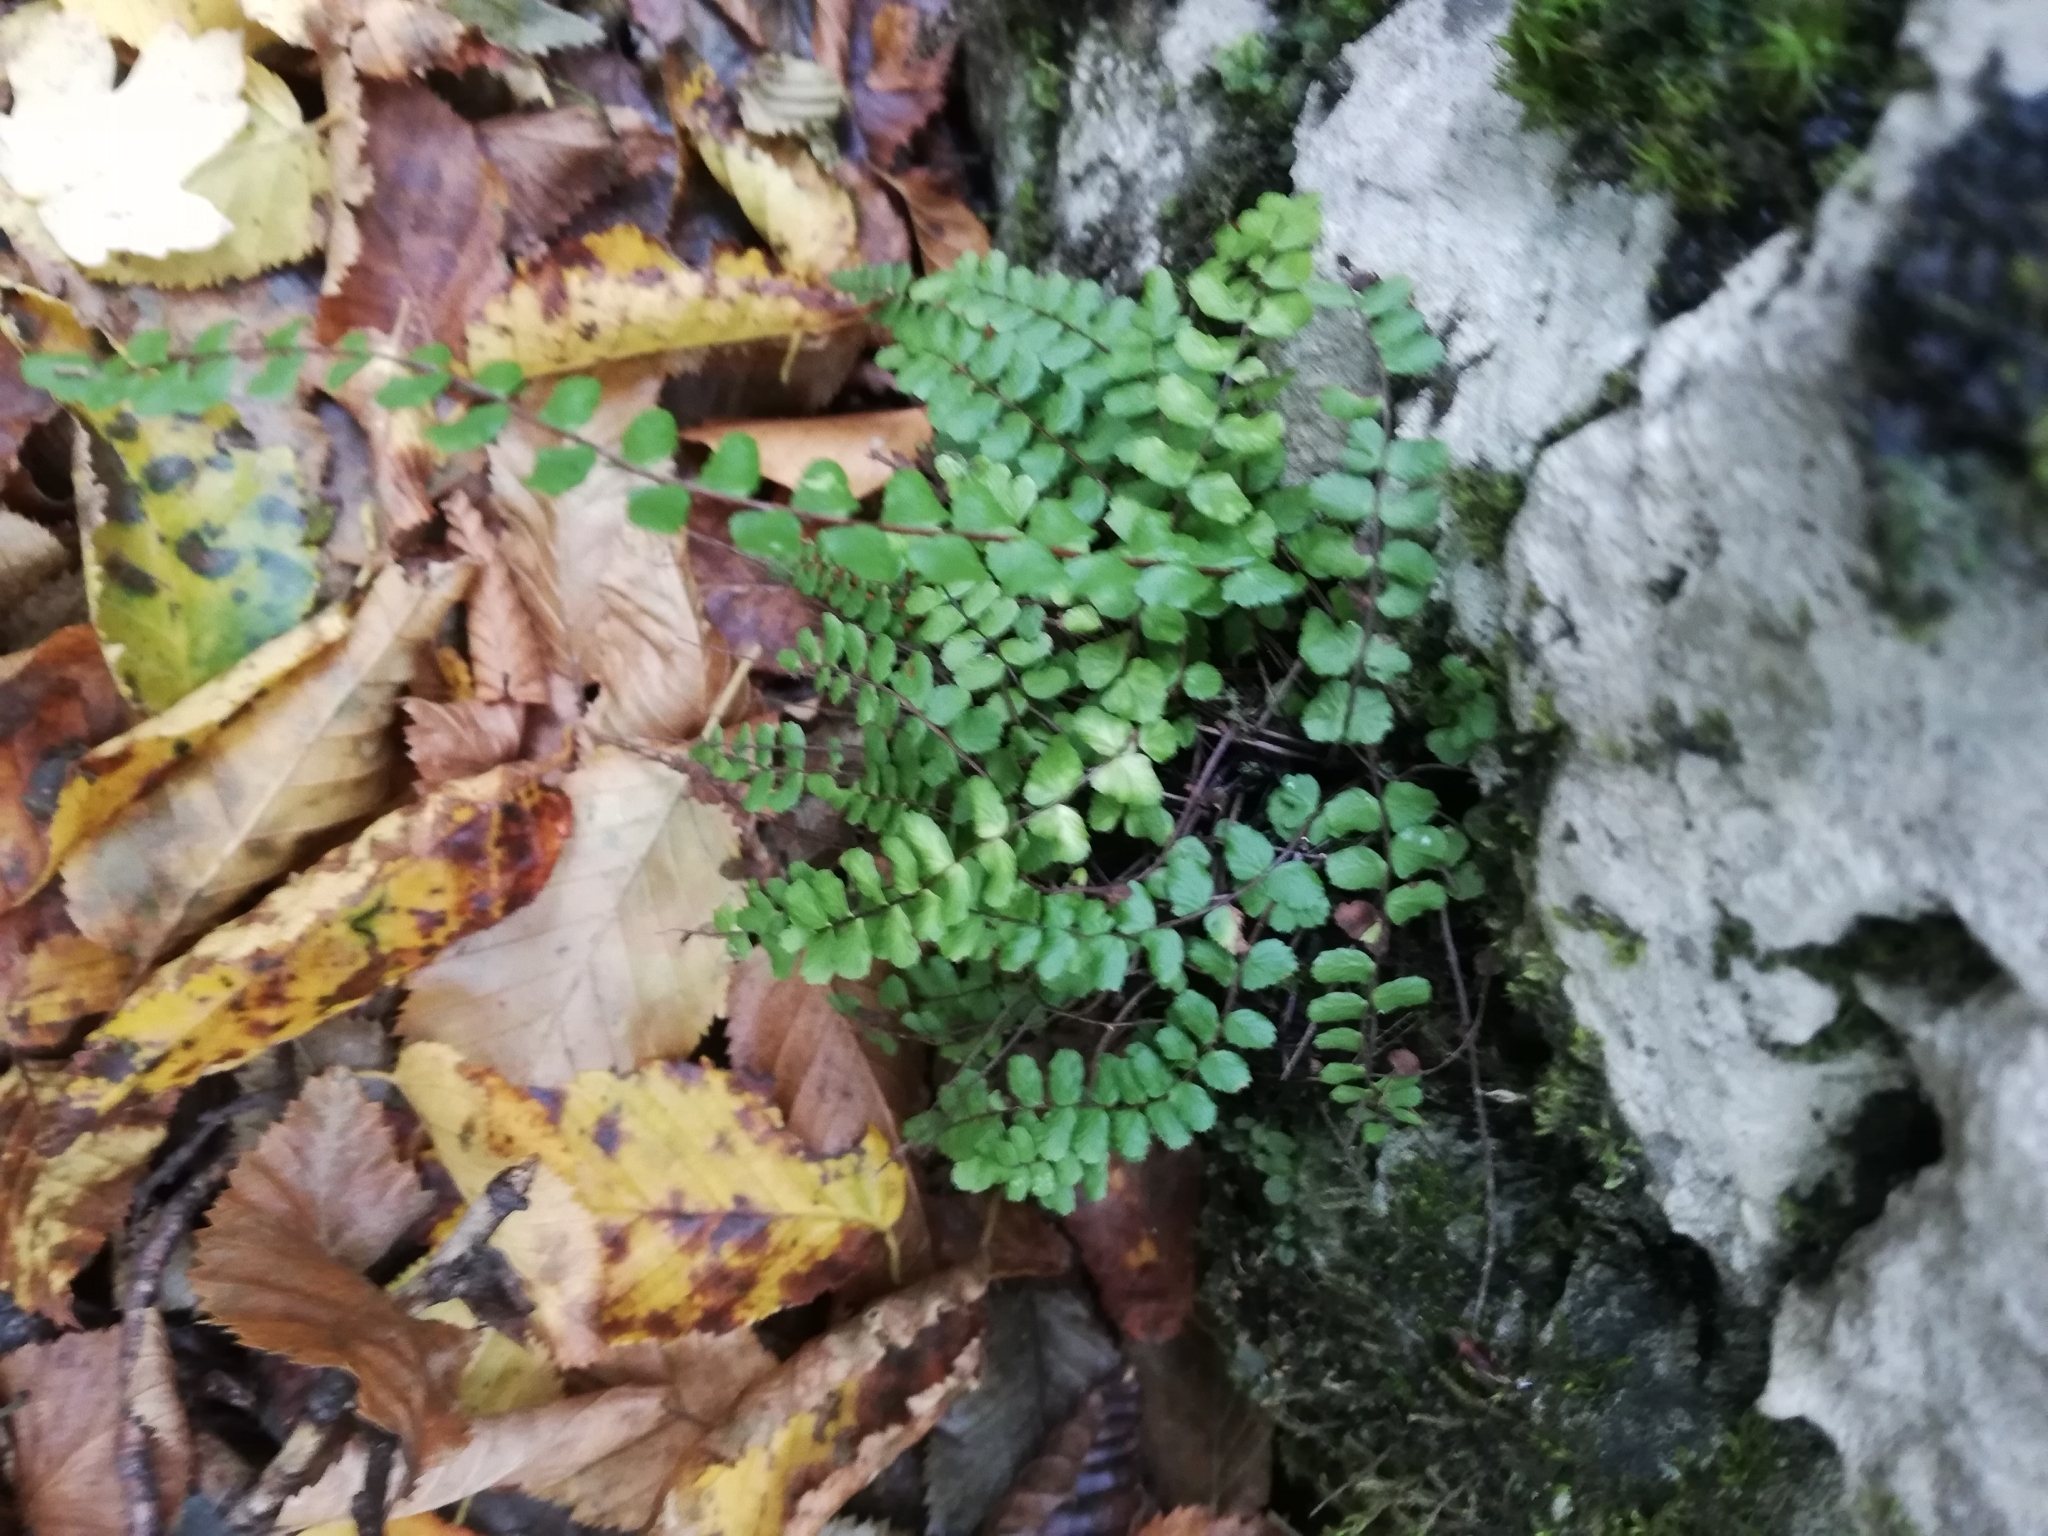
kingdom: Plantae
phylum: Tracheophyta
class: Polypodiopsida
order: Polypodiales
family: Aspleniaceae
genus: Asplenium
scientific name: Asplenium trichomanes
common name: Maidenhair spleenwort
